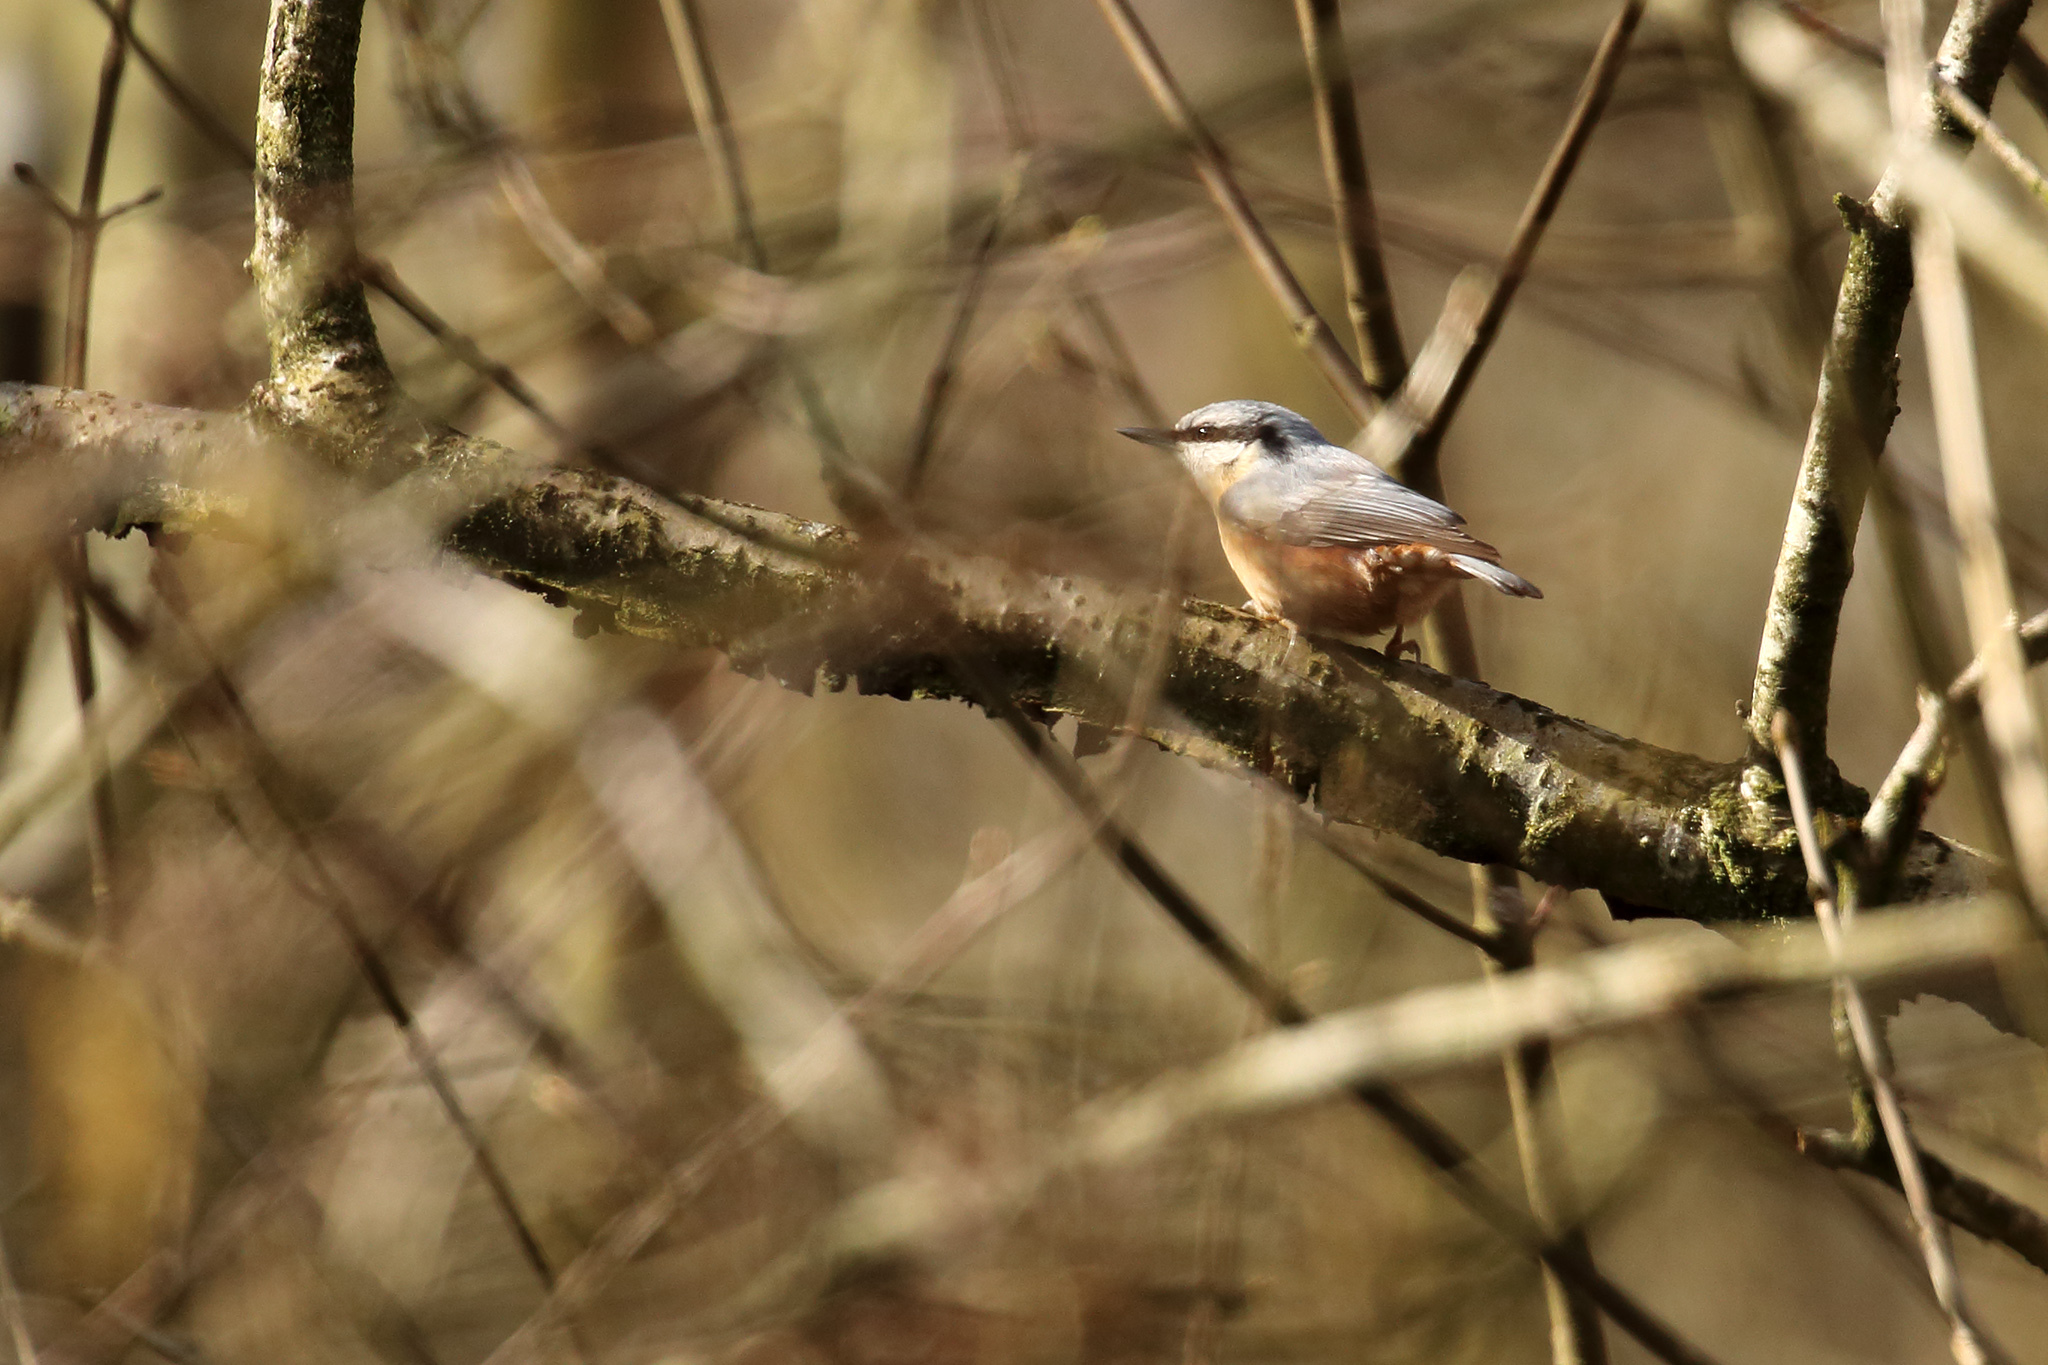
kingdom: Animalia
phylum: Chordata
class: Aves
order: Passeriformes
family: Sittidae
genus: Sitta
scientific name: Sitta europaea
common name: Eurasian nuthatch
